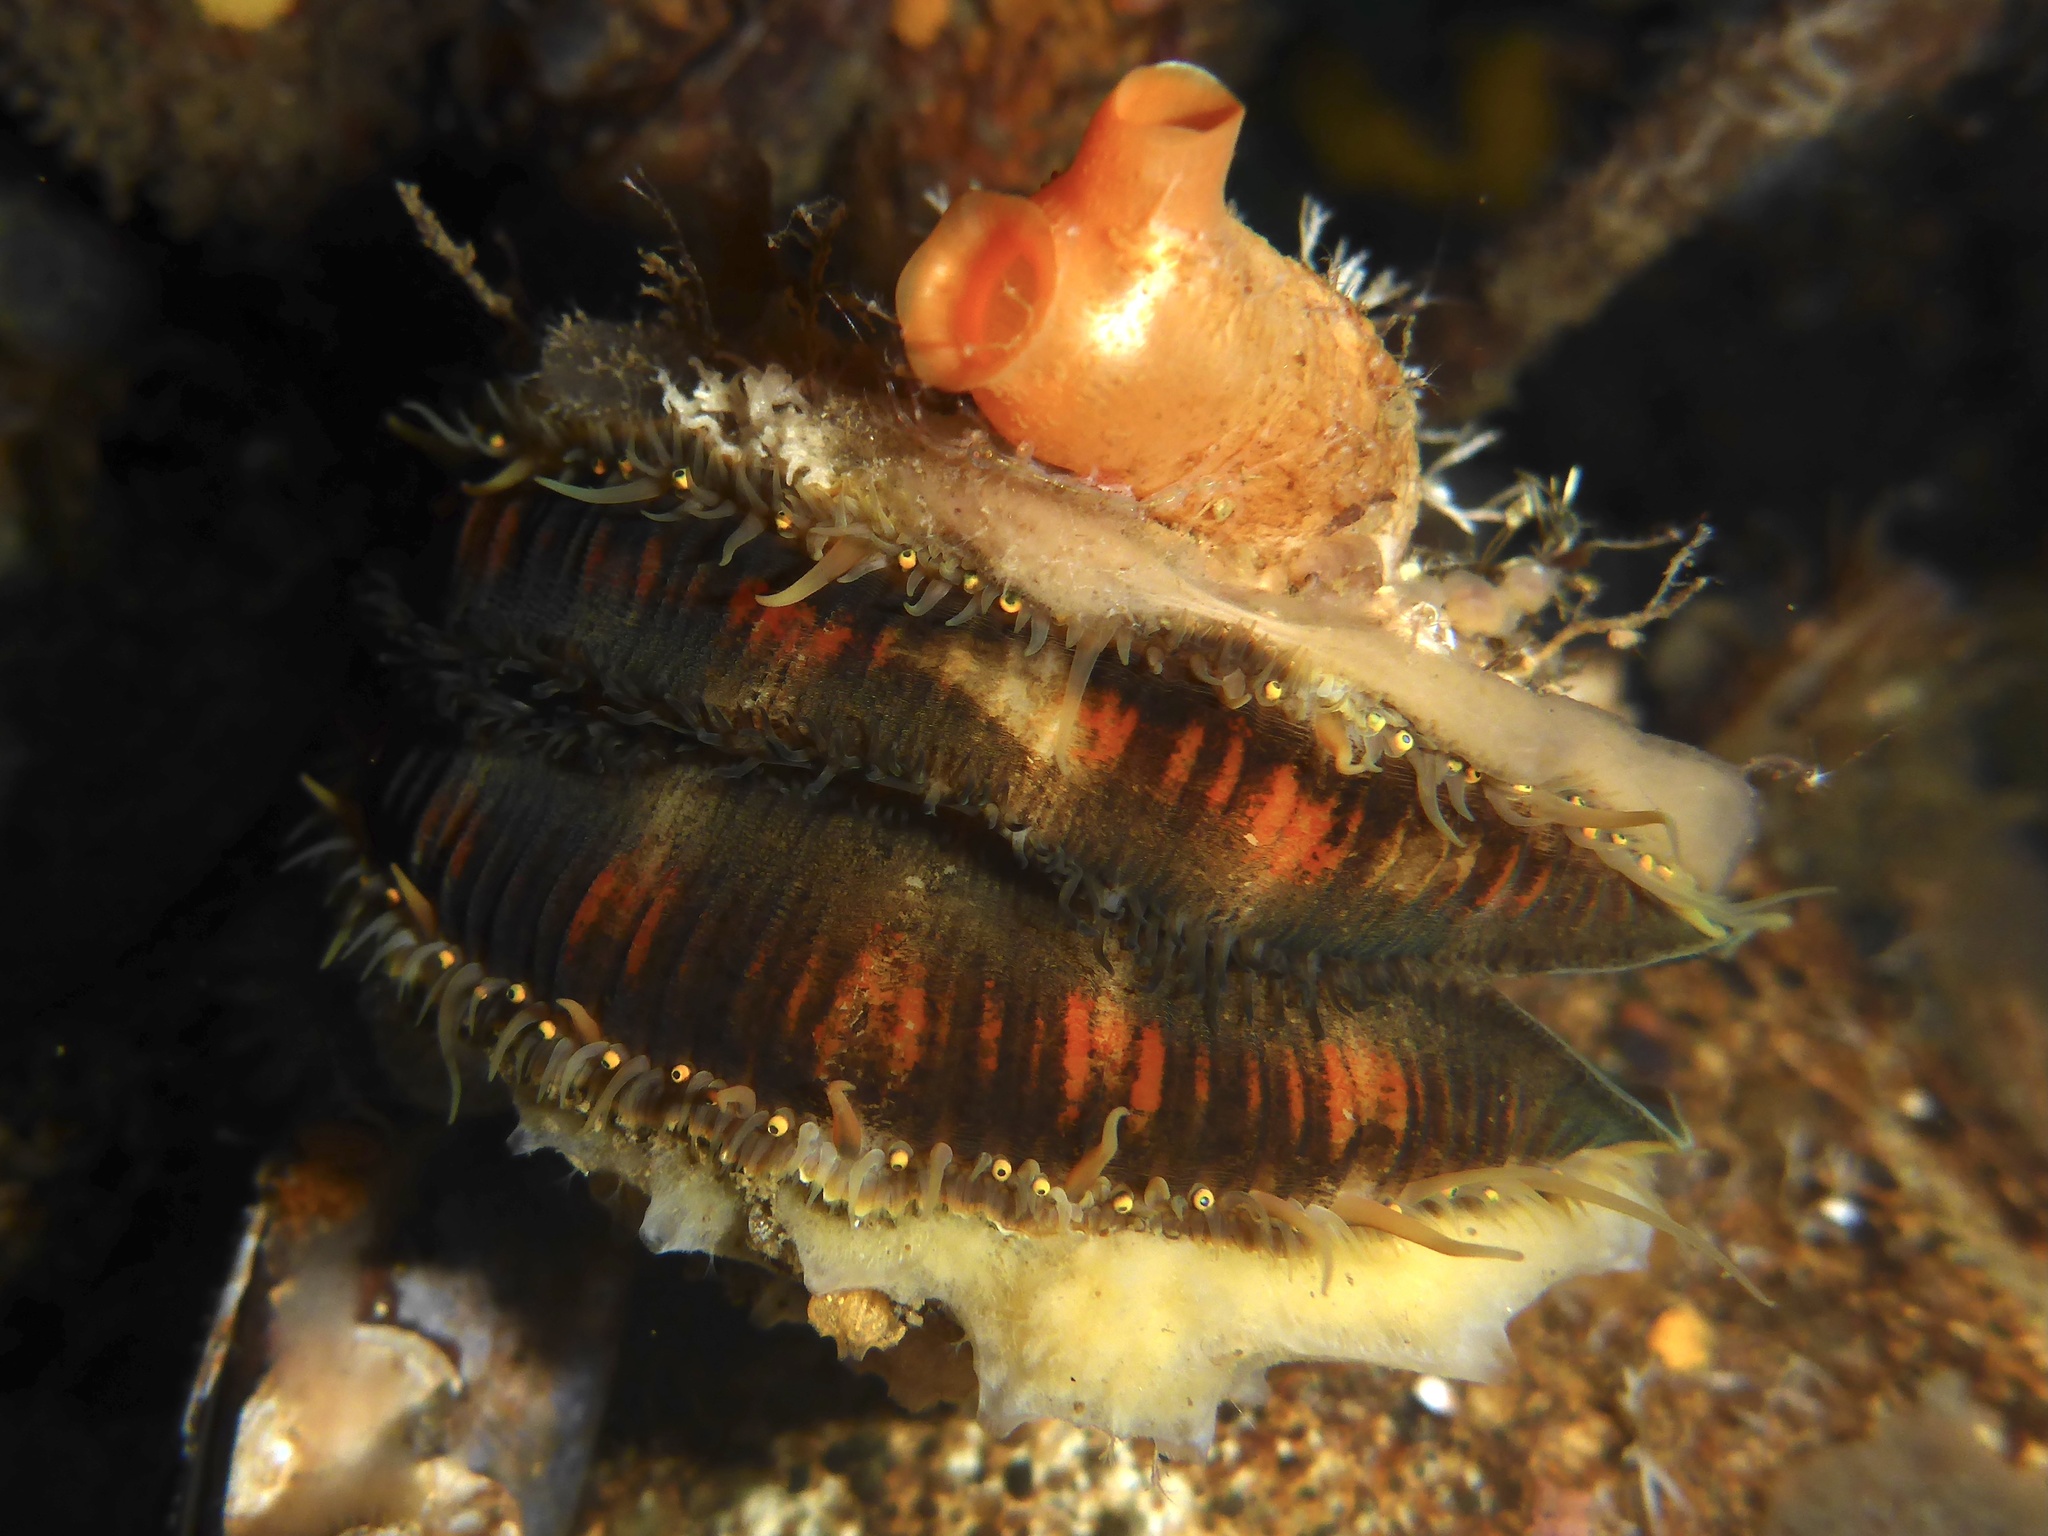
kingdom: Animalia
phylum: Mollusca
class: Bivalvia
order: Pectinida
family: Pectinidae
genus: Chlamys
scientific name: Chlamys hastata
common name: Spear scallop
